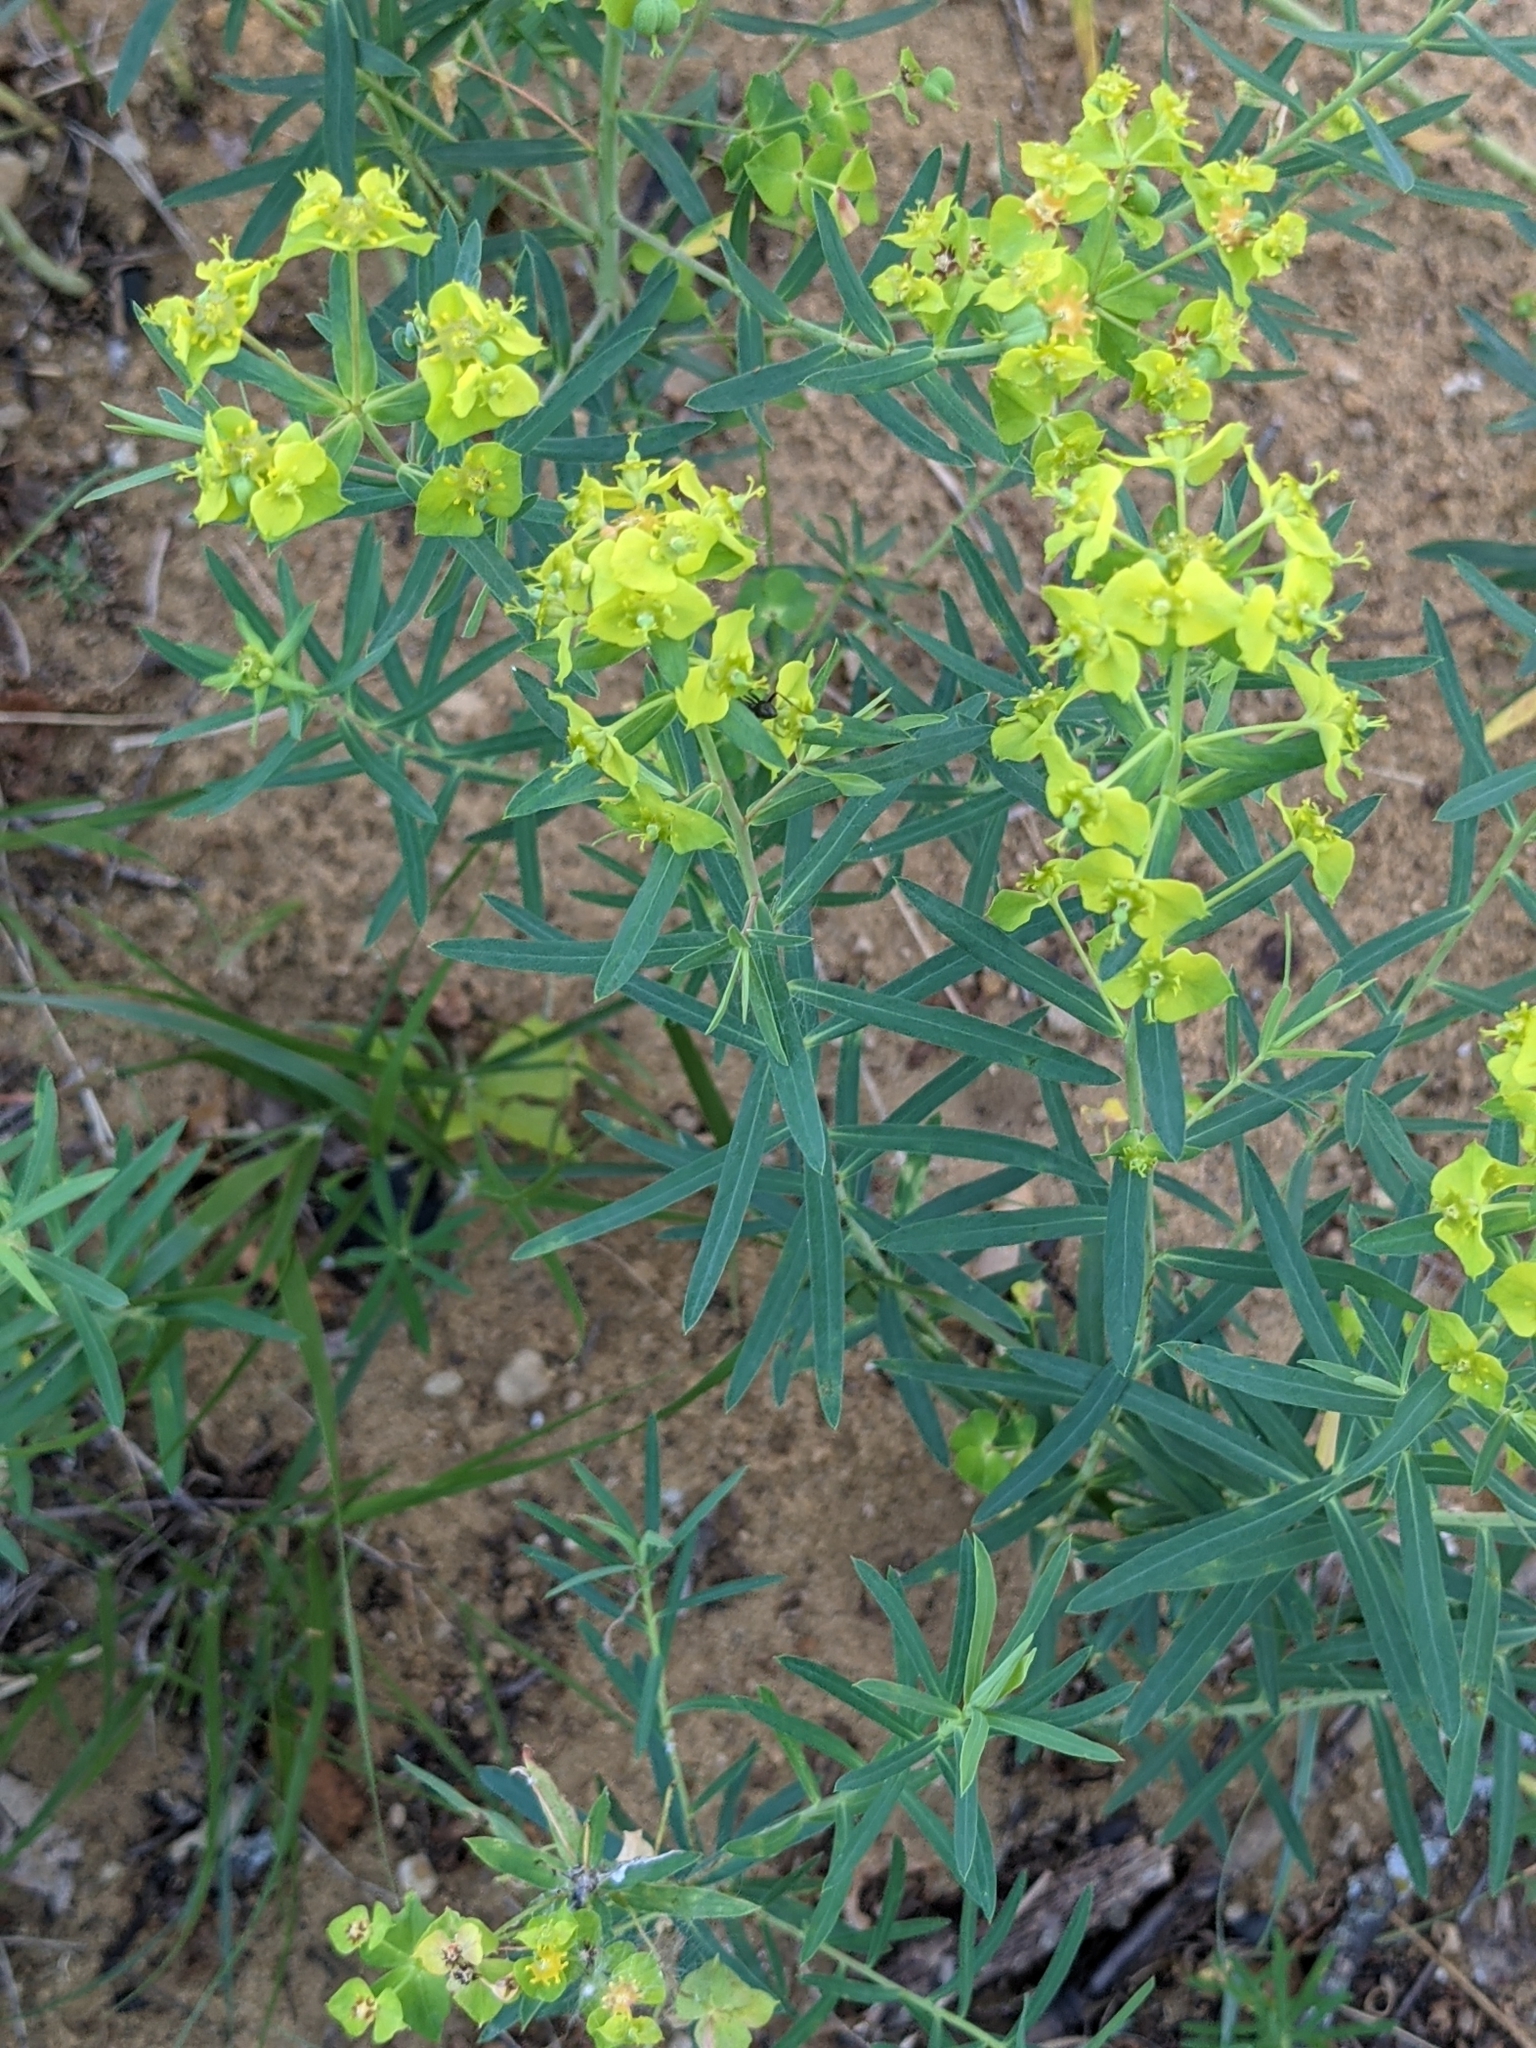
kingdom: Plantae
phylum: Tracheophyta
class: Magnoliopsida
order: Malpighiales
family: Euphorbiaceae
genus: Euphorbia
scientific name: Euphorbia virgata
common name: Leafy spurge
